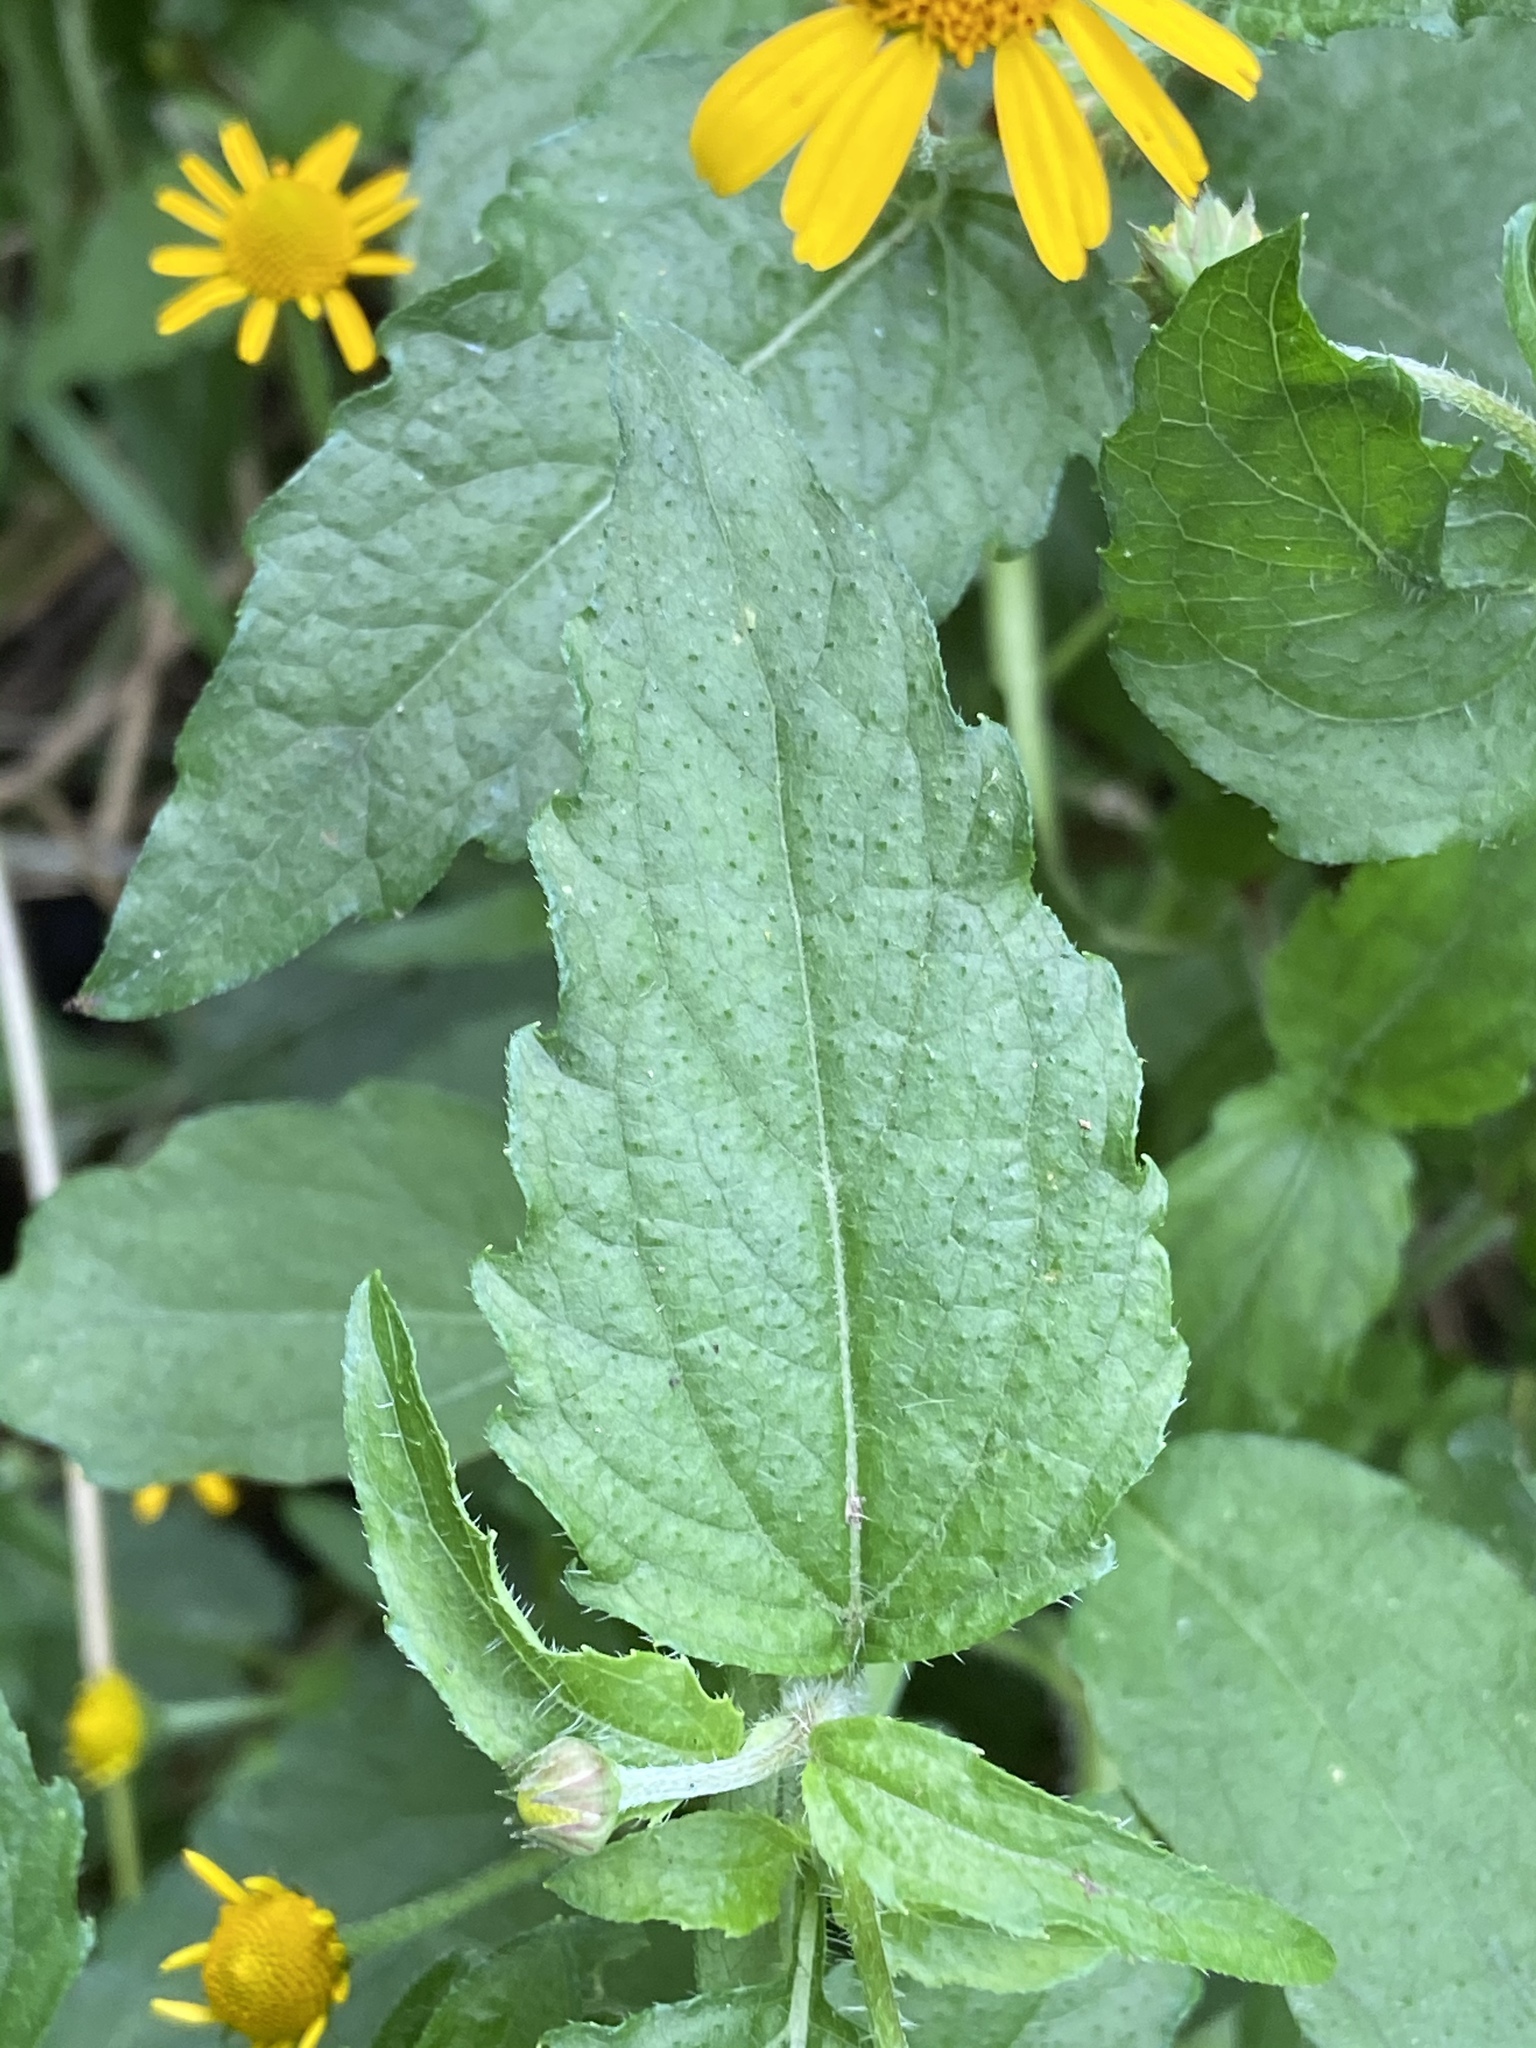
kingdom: Plantae
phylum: Tracheophyta
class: Magnoliopsida
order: Asterales
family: Asteraceae
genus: Acmella
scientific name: Acmella repens
